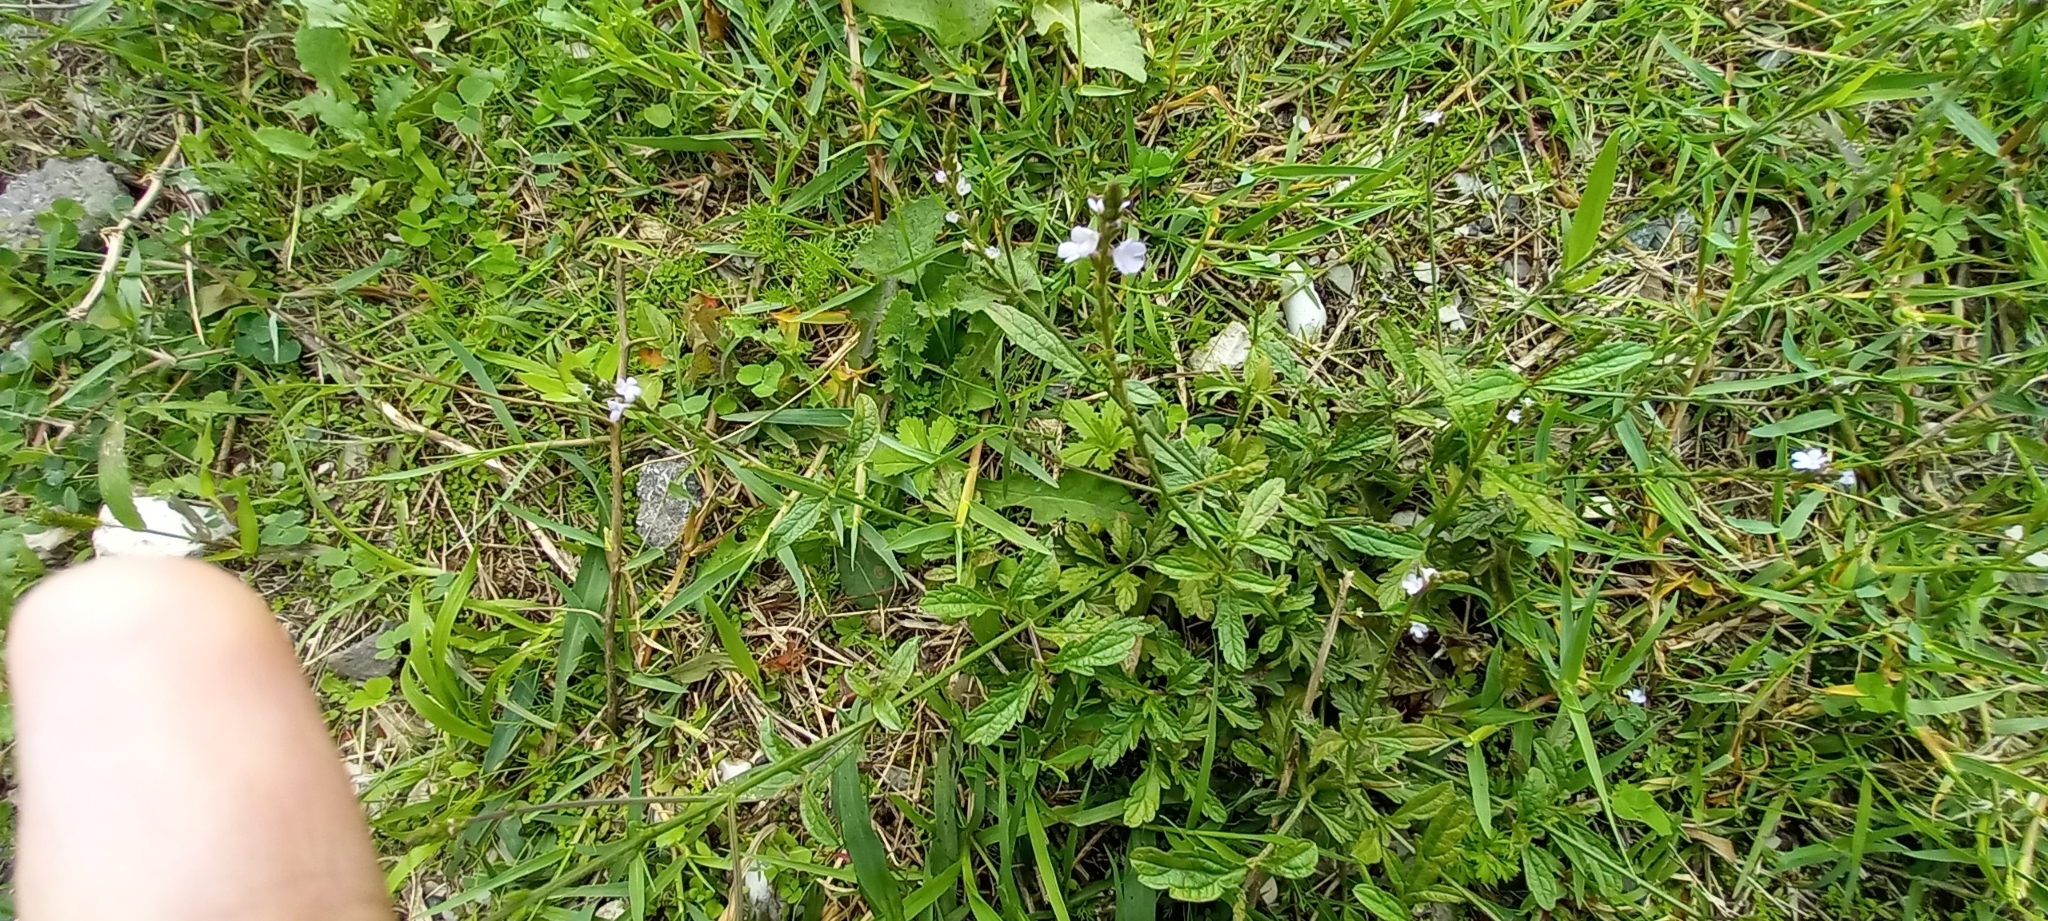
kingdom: Plantae
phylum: Tracheophyta
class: Magnoliopsida
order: Lamiales
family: Verbenaceae
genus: Verbena
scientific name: Verbena officinalis
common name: Vervain
